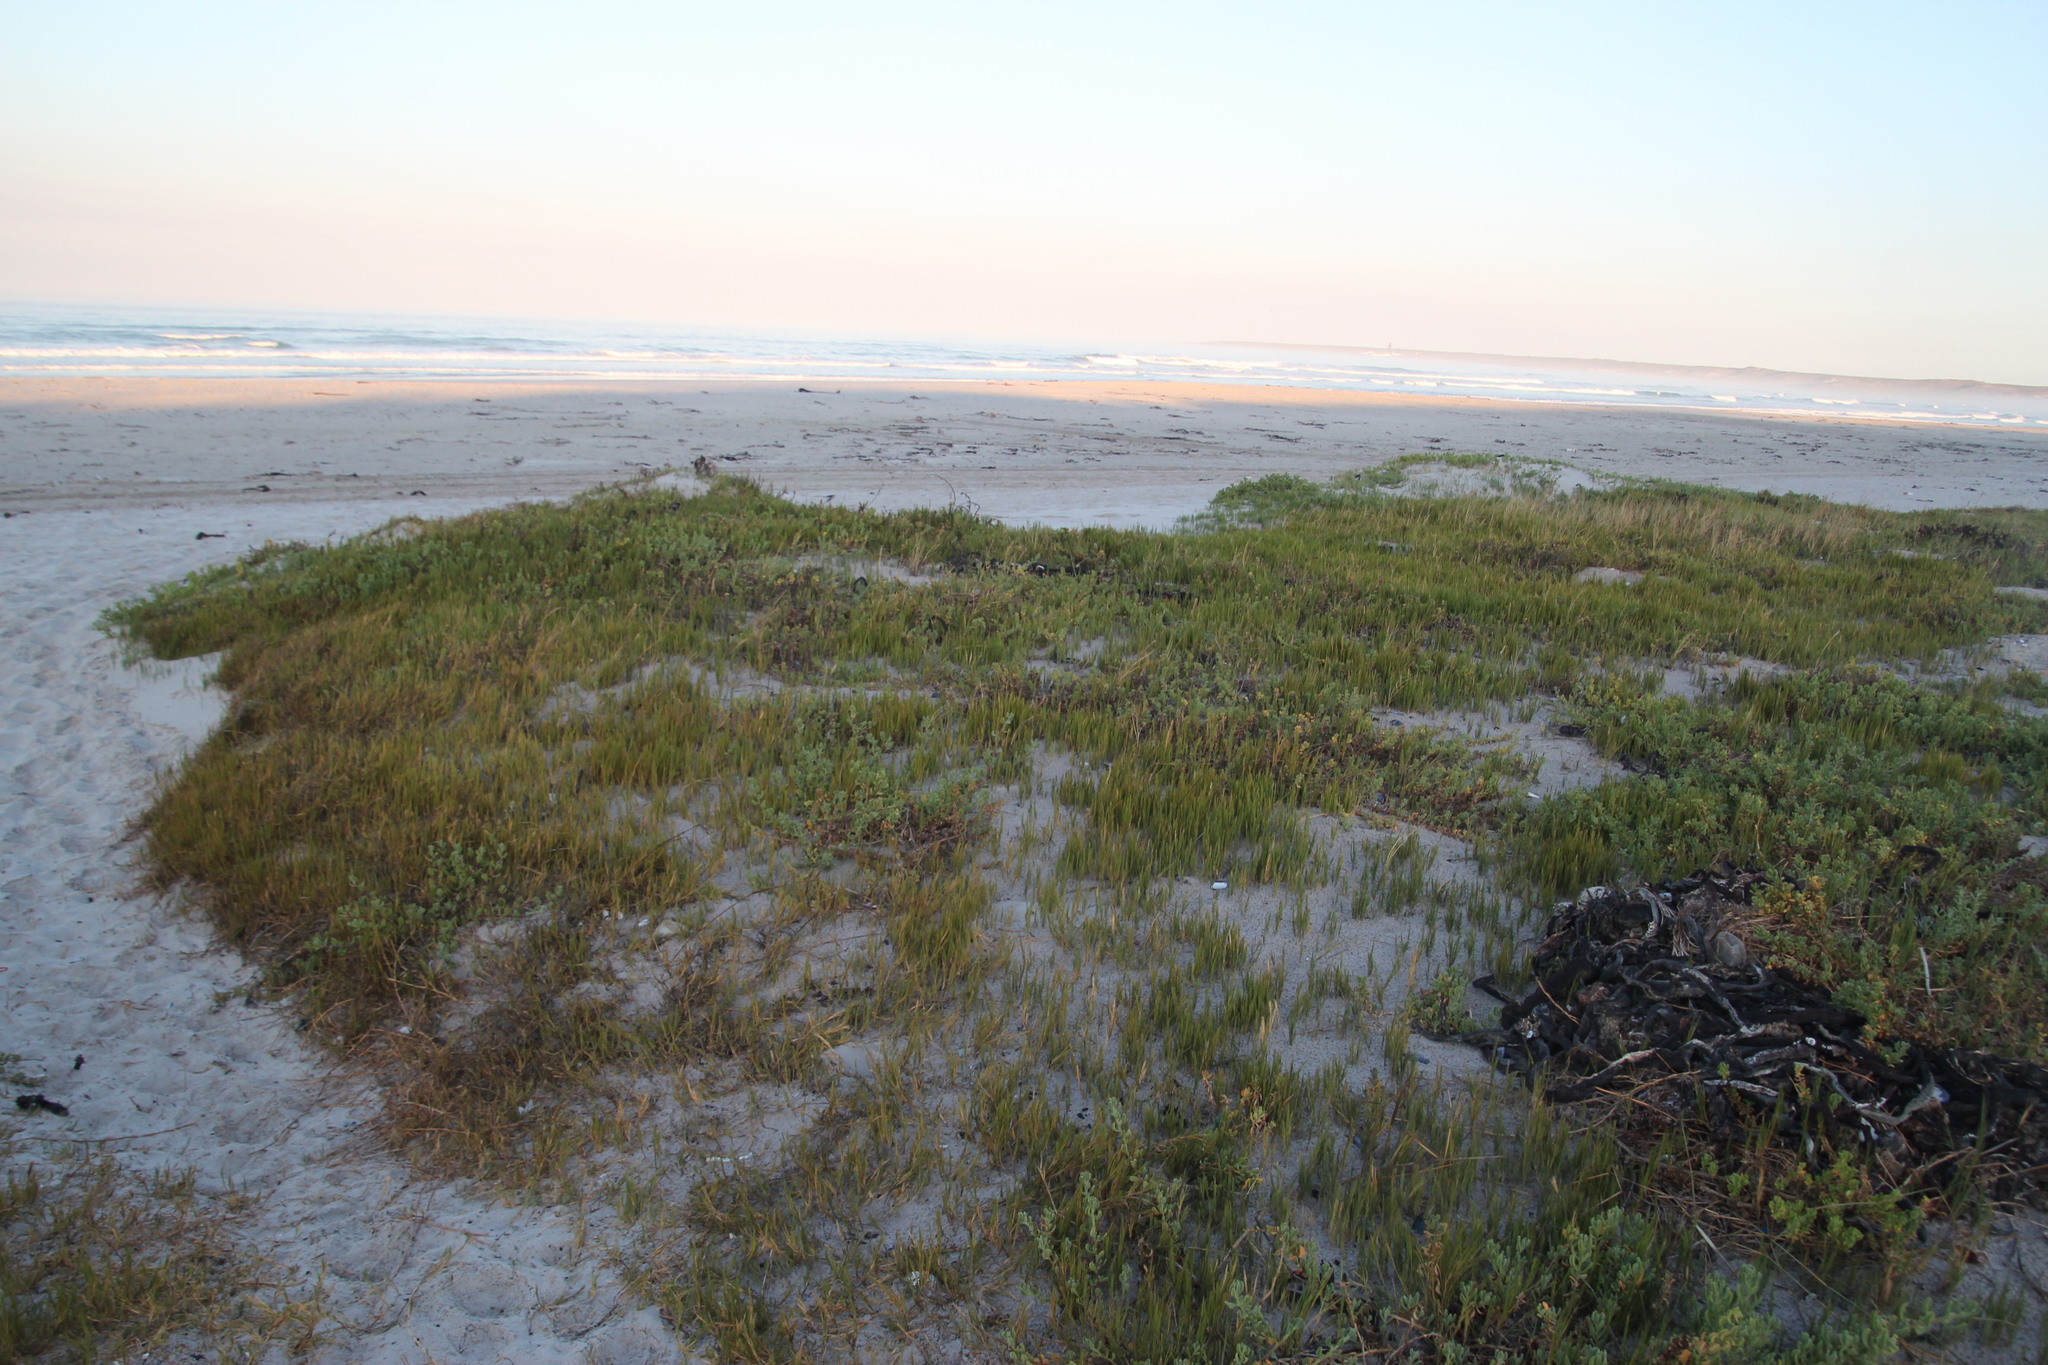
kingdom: Plantae
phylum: Tracheophyta
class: Liliopsida
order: Poales
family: Poaceae
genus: Sporobolus
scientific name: Sporobolus virginicus
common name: Beach dropseed
